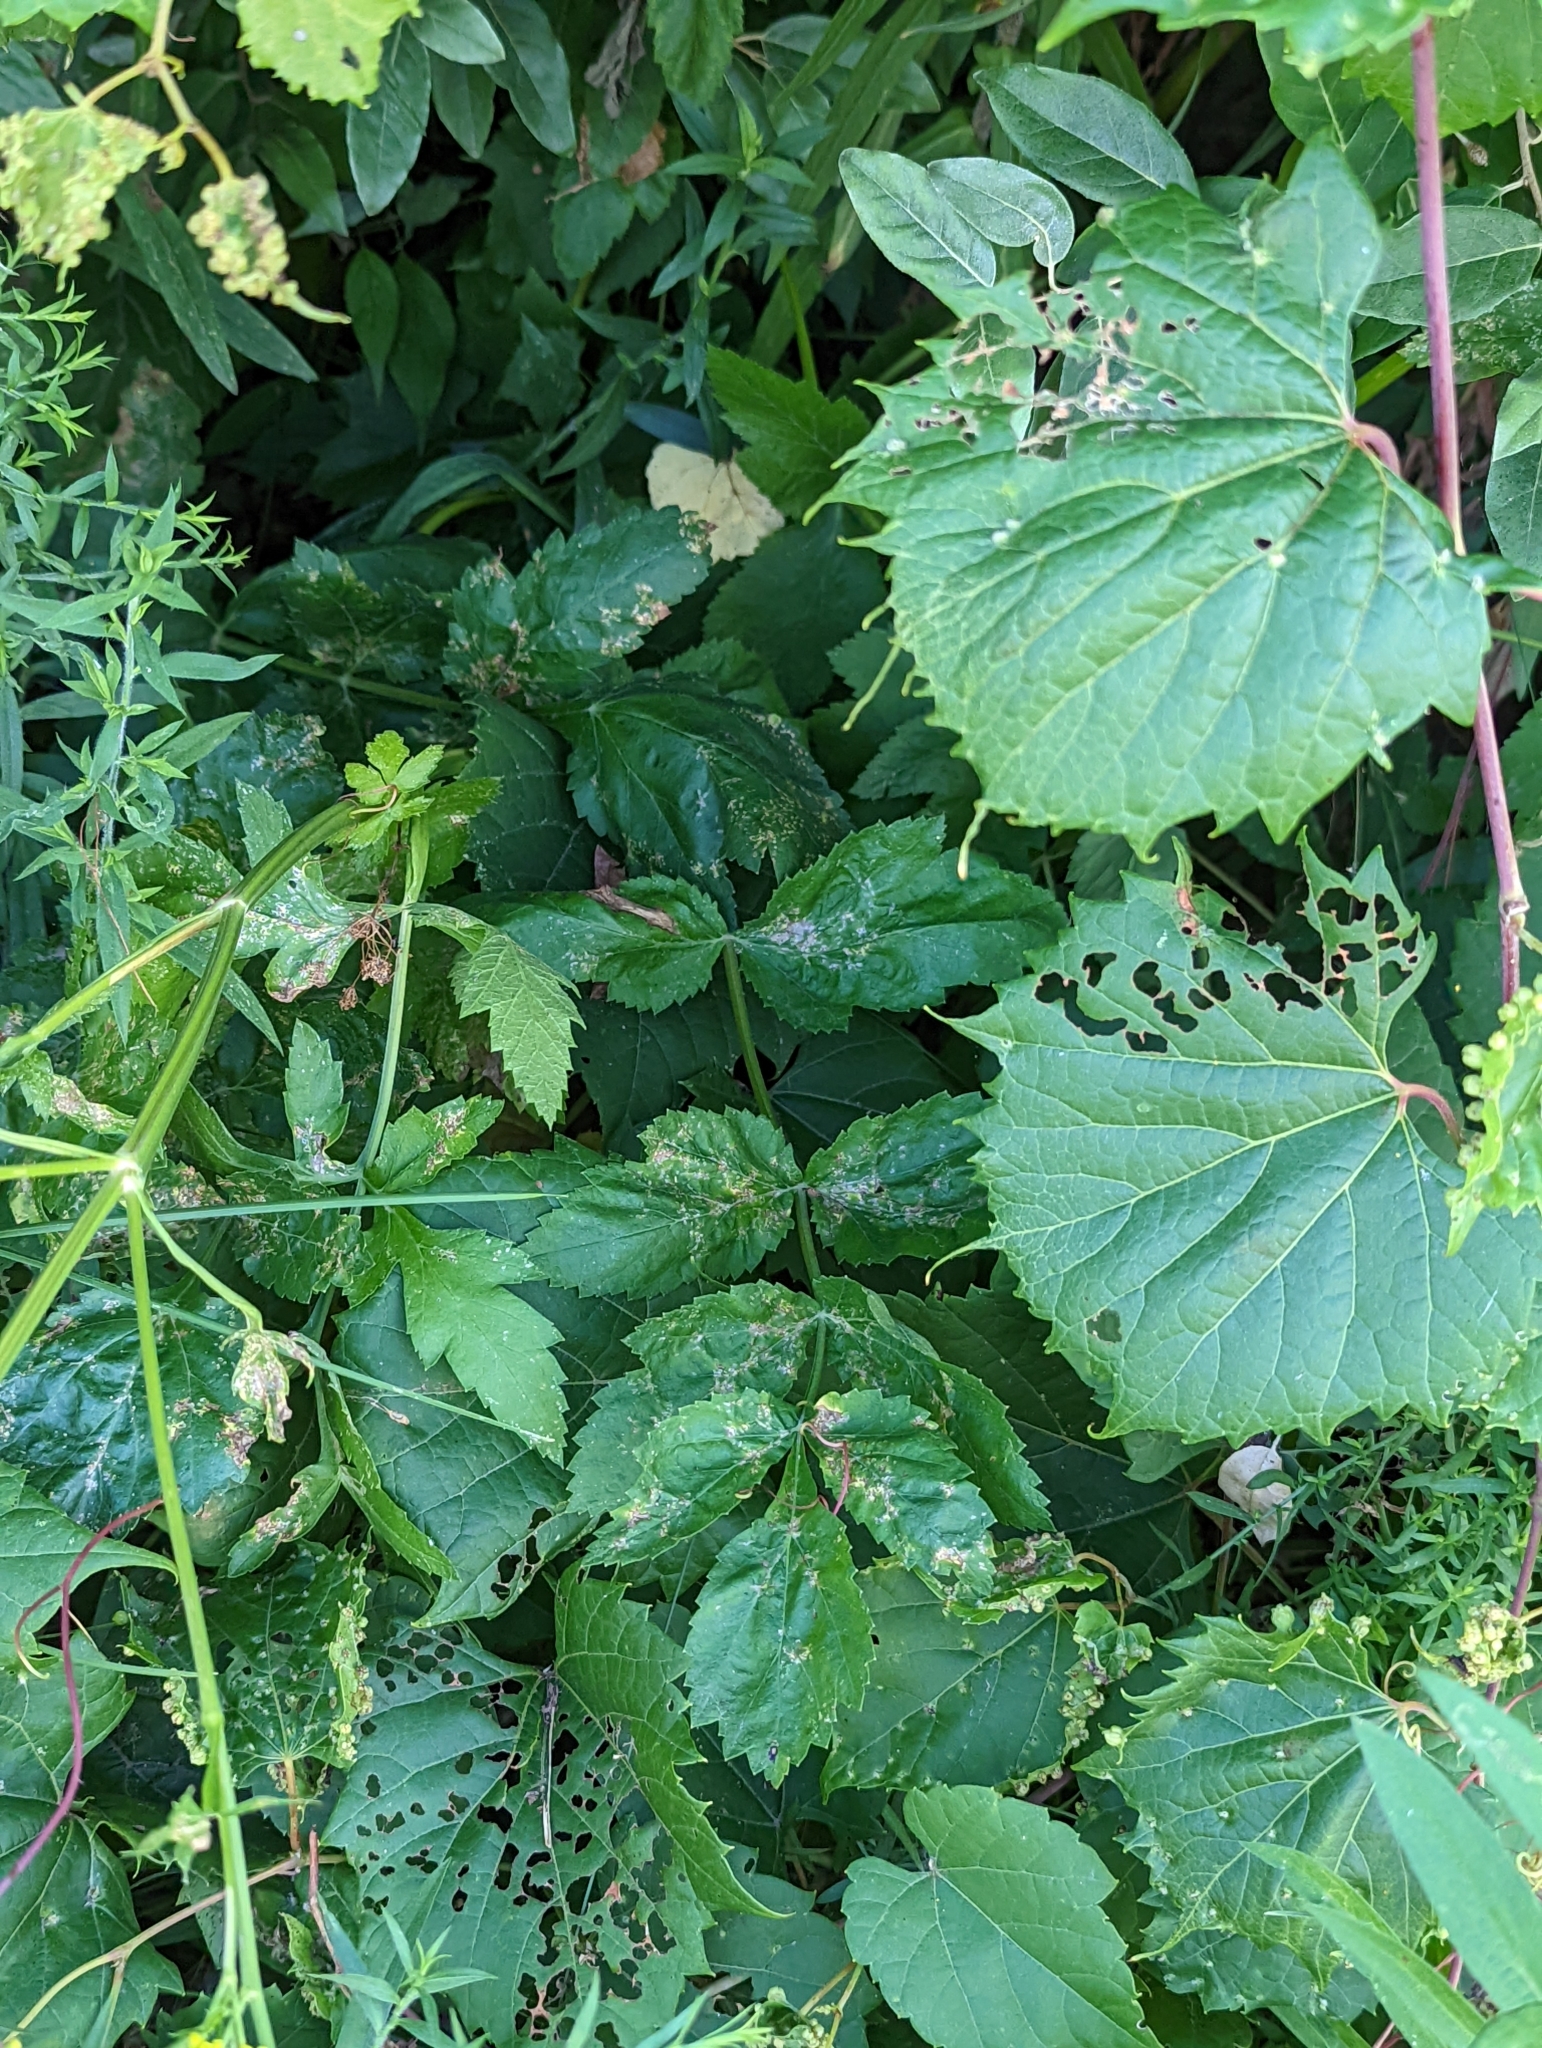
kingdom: Plantae
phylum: Tracheophyta
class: Magnoliopsida
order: Apiales
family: Apiaceae
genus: Pastinaca
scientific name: Pastinaca sativa
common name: Wild parsnip
